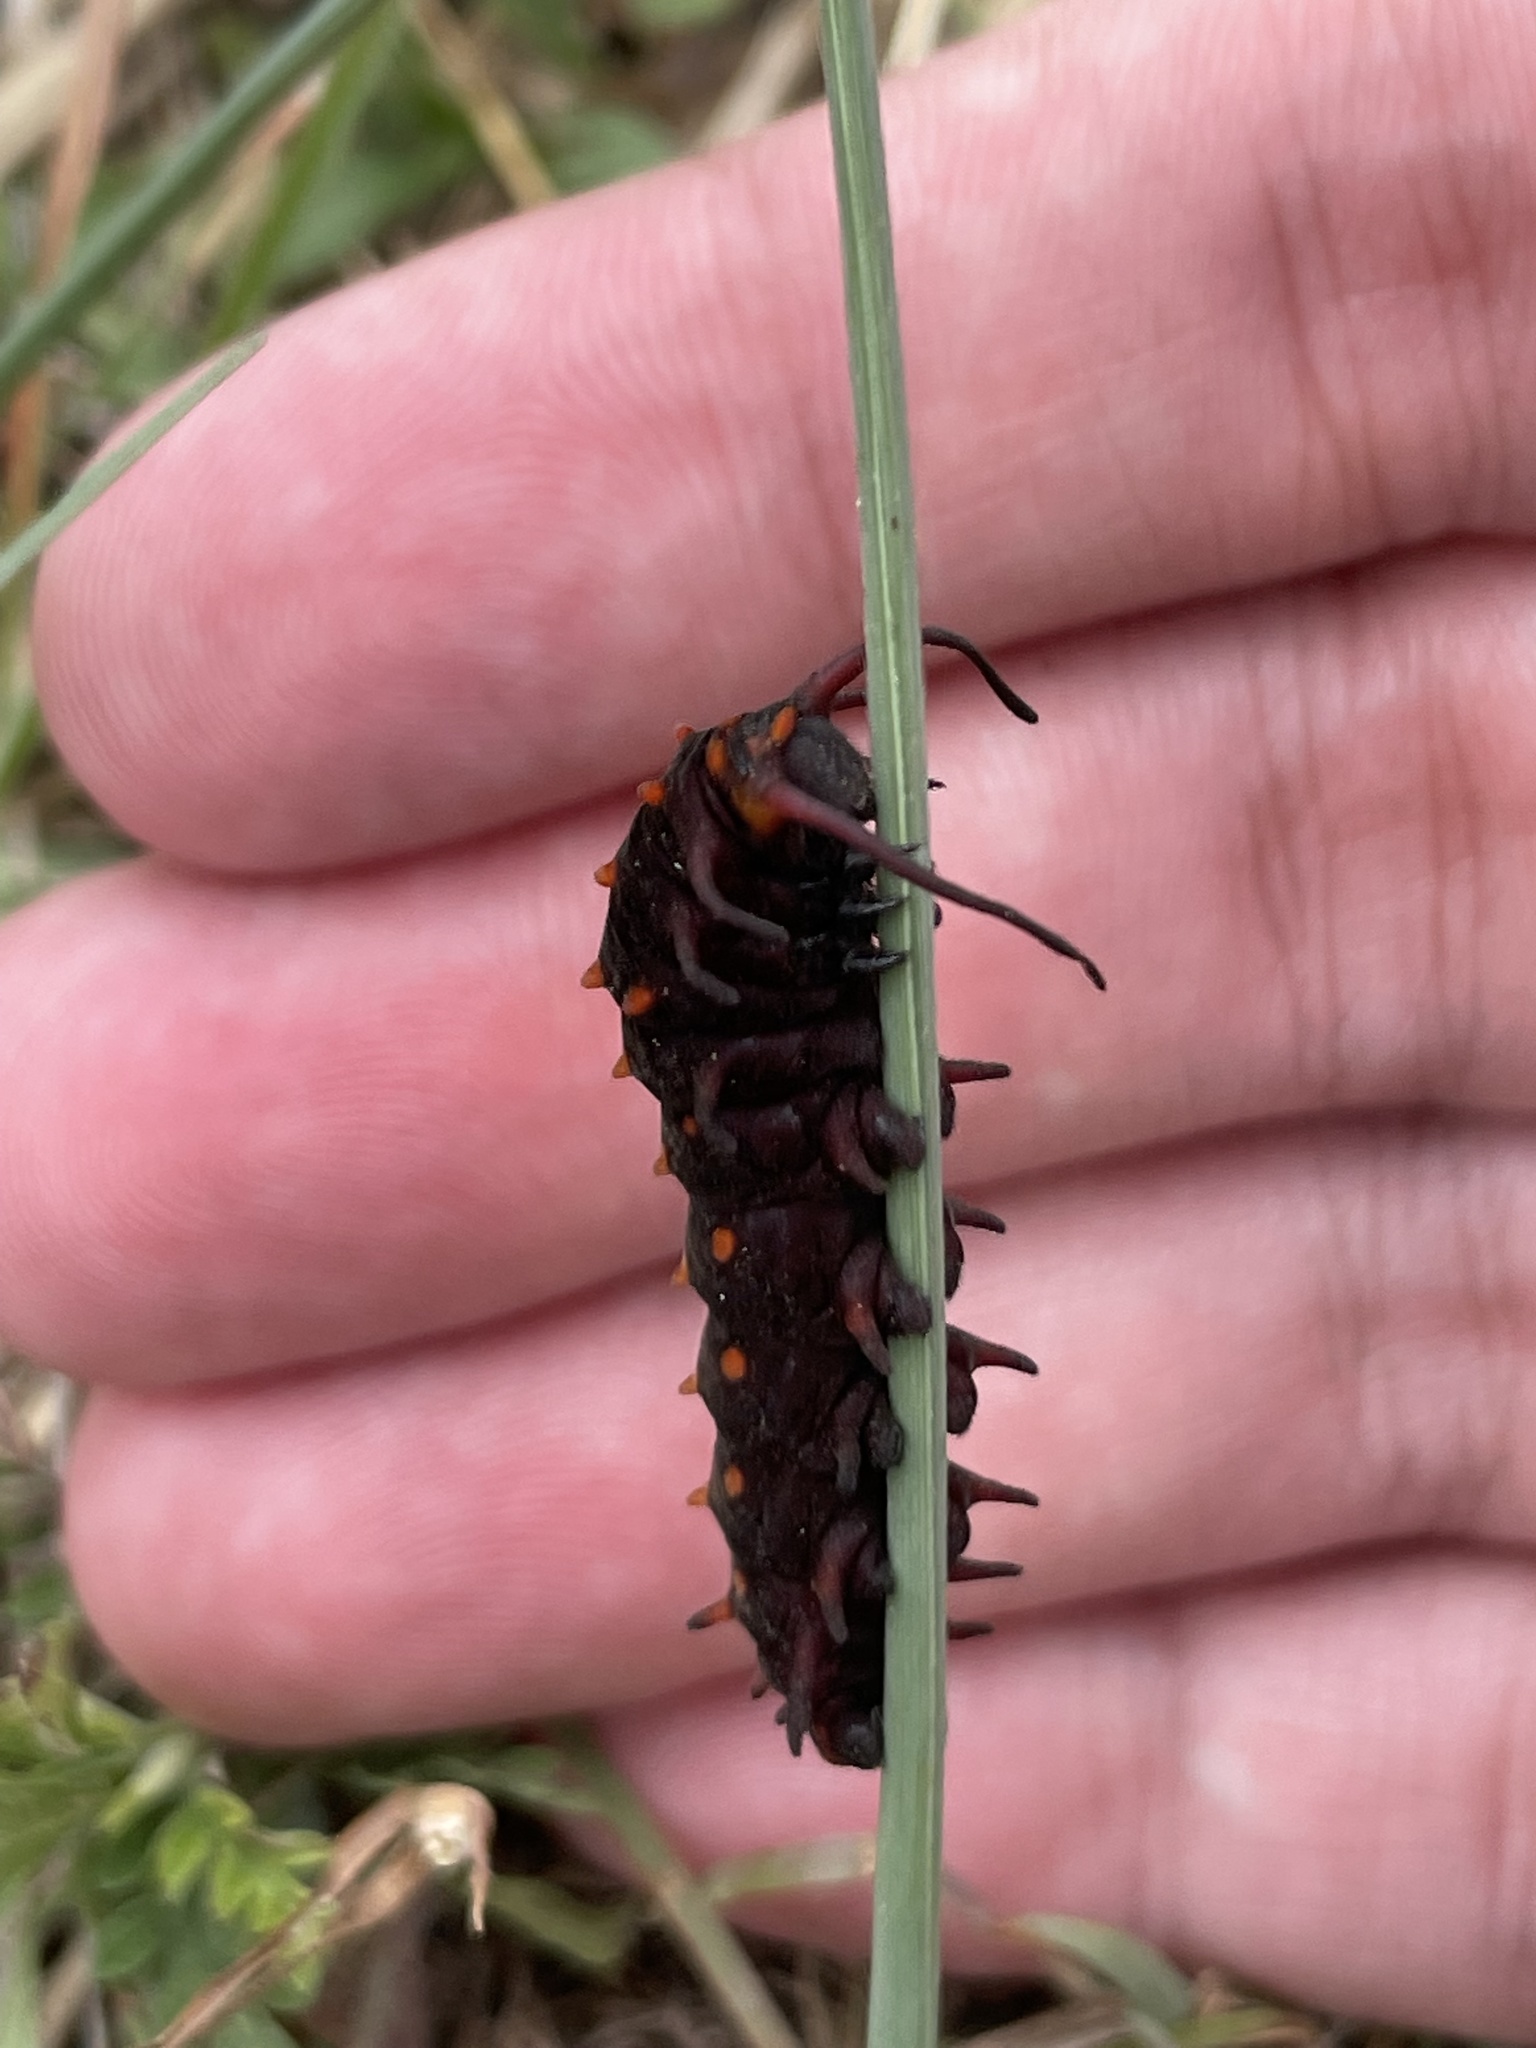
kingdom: Animalia
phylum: Arthropoda
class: Insecta
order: Lepidoptera
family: Papilionidae
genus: Battus
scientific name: Battus philenor
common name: Pipevine swallowtail
